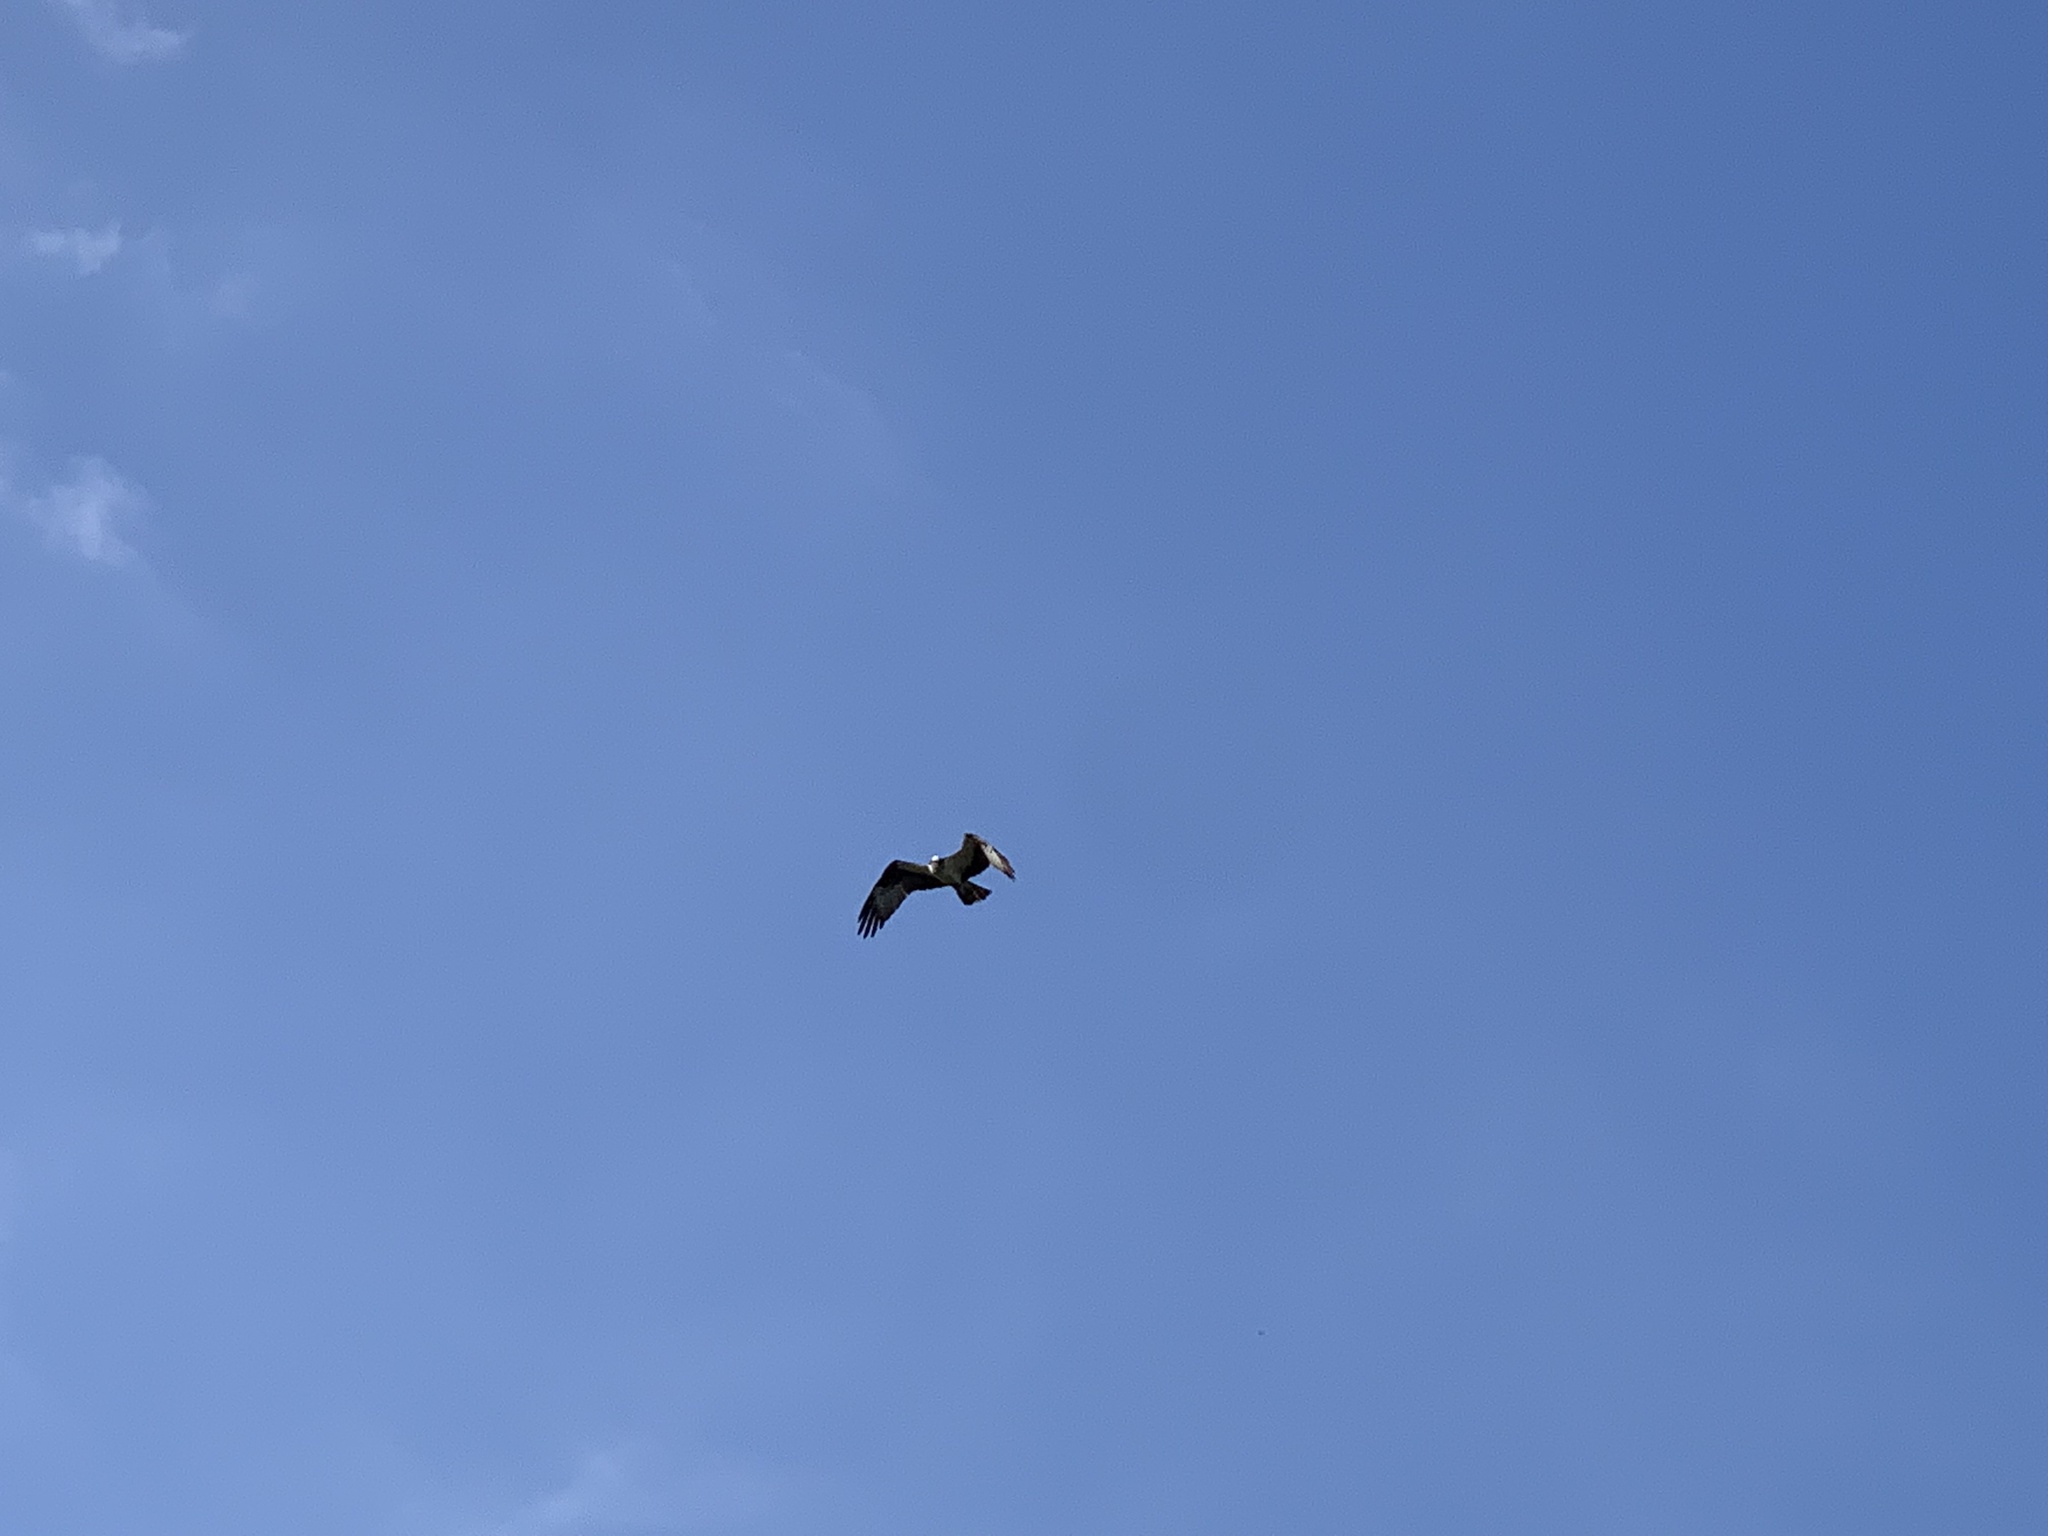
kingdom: Animalia
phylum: Chordata
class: Aves
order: Accipitriformes
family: Pandionidae
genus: Pandion
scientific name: Pandion haliaetus
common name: Osprey
